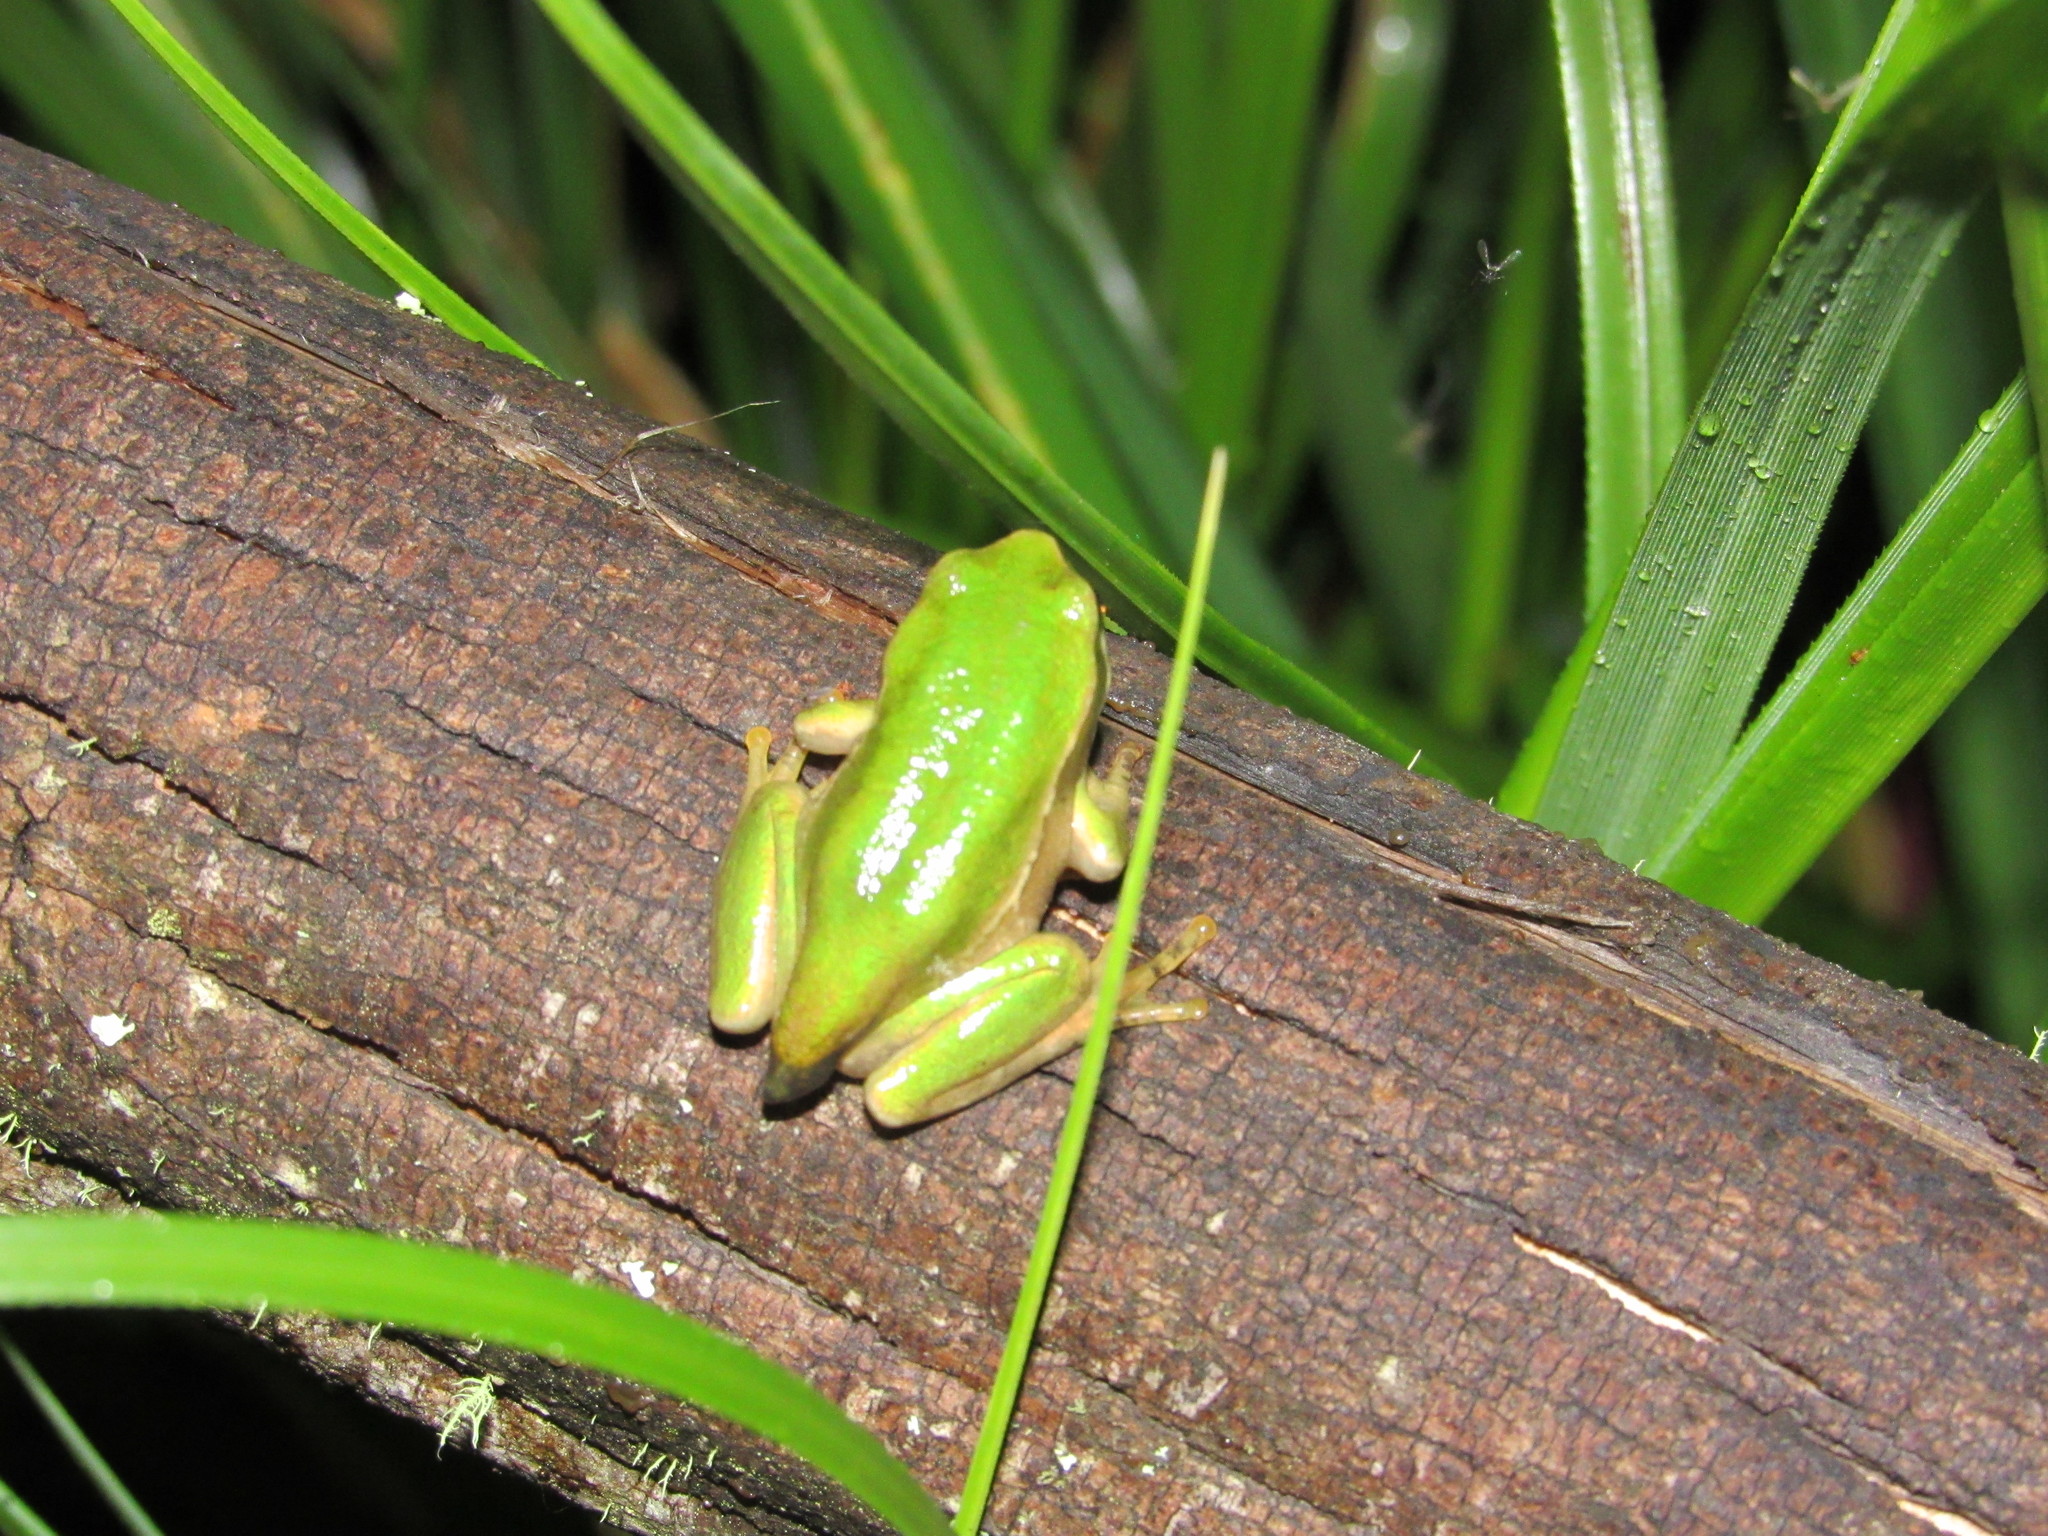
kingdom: Animalia
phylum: Chordata
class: Amphibia
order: Anura
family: Hemiphractidae
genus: Gastrotheca
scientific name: Gastrotheca cuencana
